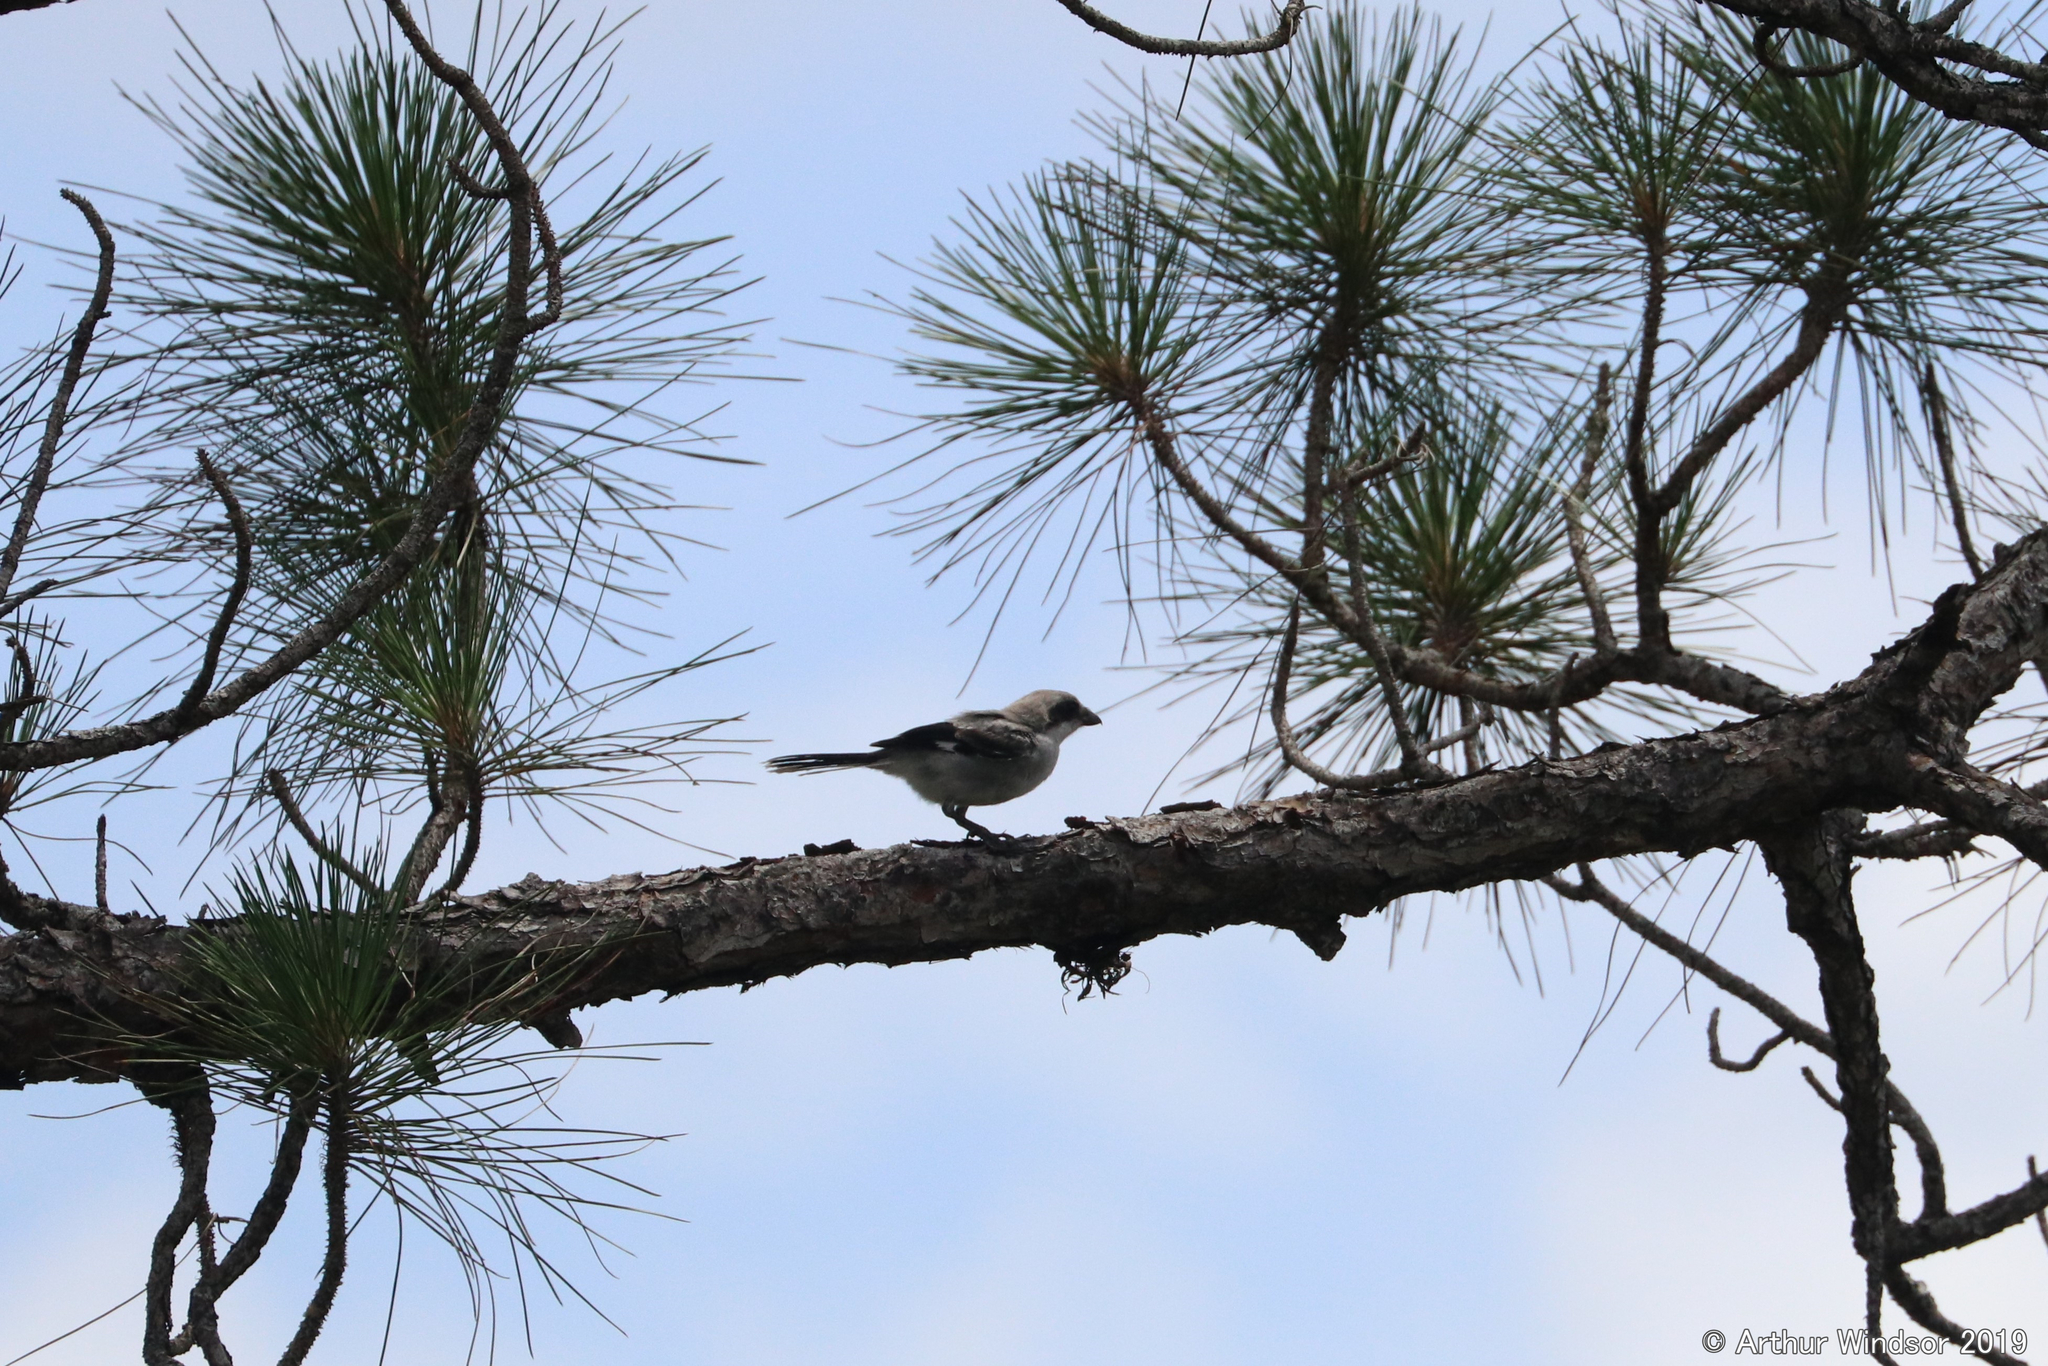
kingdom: Animalia
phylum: Chordata
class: Aves
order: Passeriformes
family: Laniidae
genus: Lanius
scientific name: Lanius ludovicianus
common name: Loggerhead shrike
